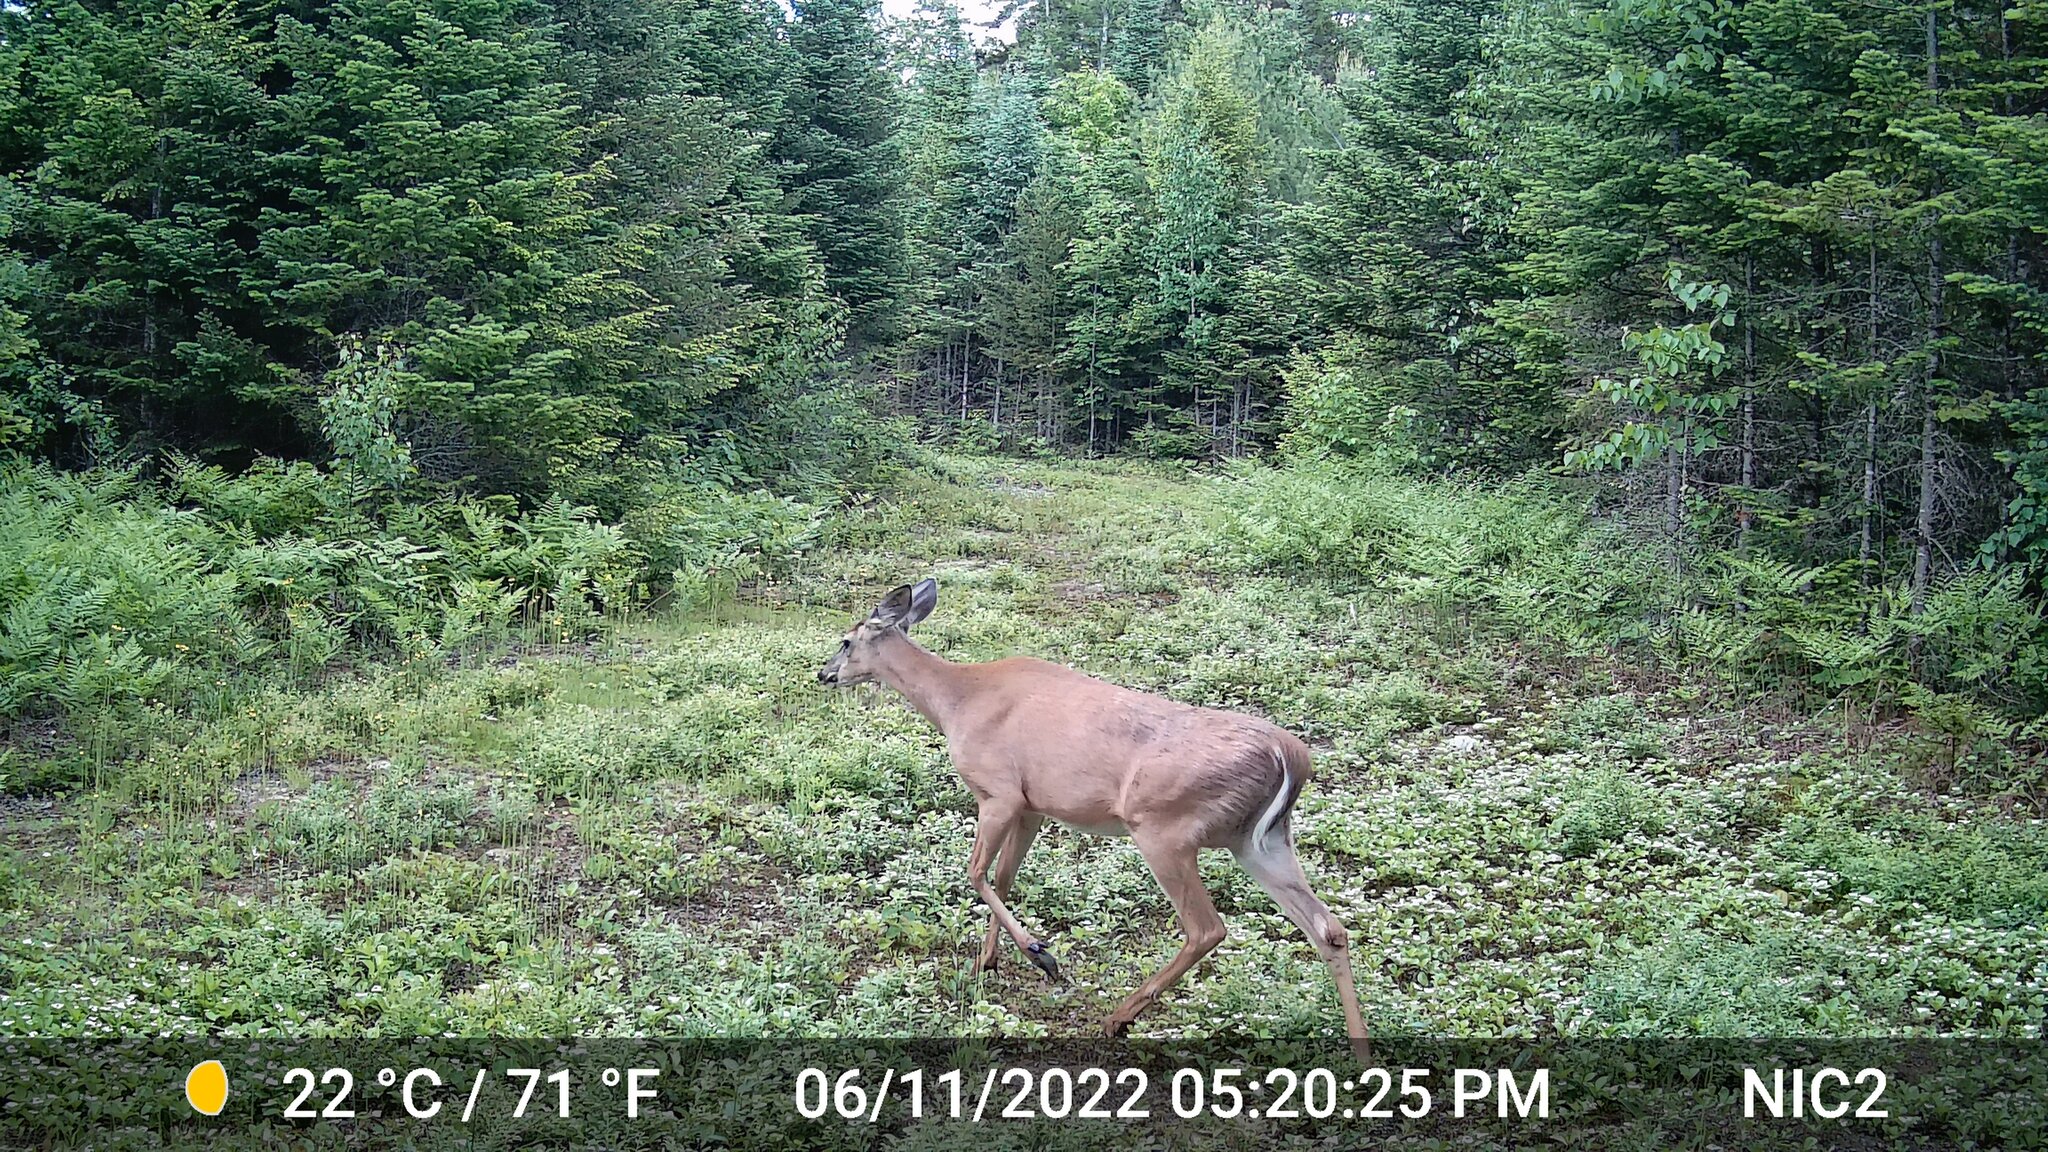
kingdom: Animalia
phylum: Chordata
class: Mammalia
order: Artiodactyla
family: Cervidae
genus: Odocoileus
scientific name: Odocoileus virginianus
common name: White-tailed deer
